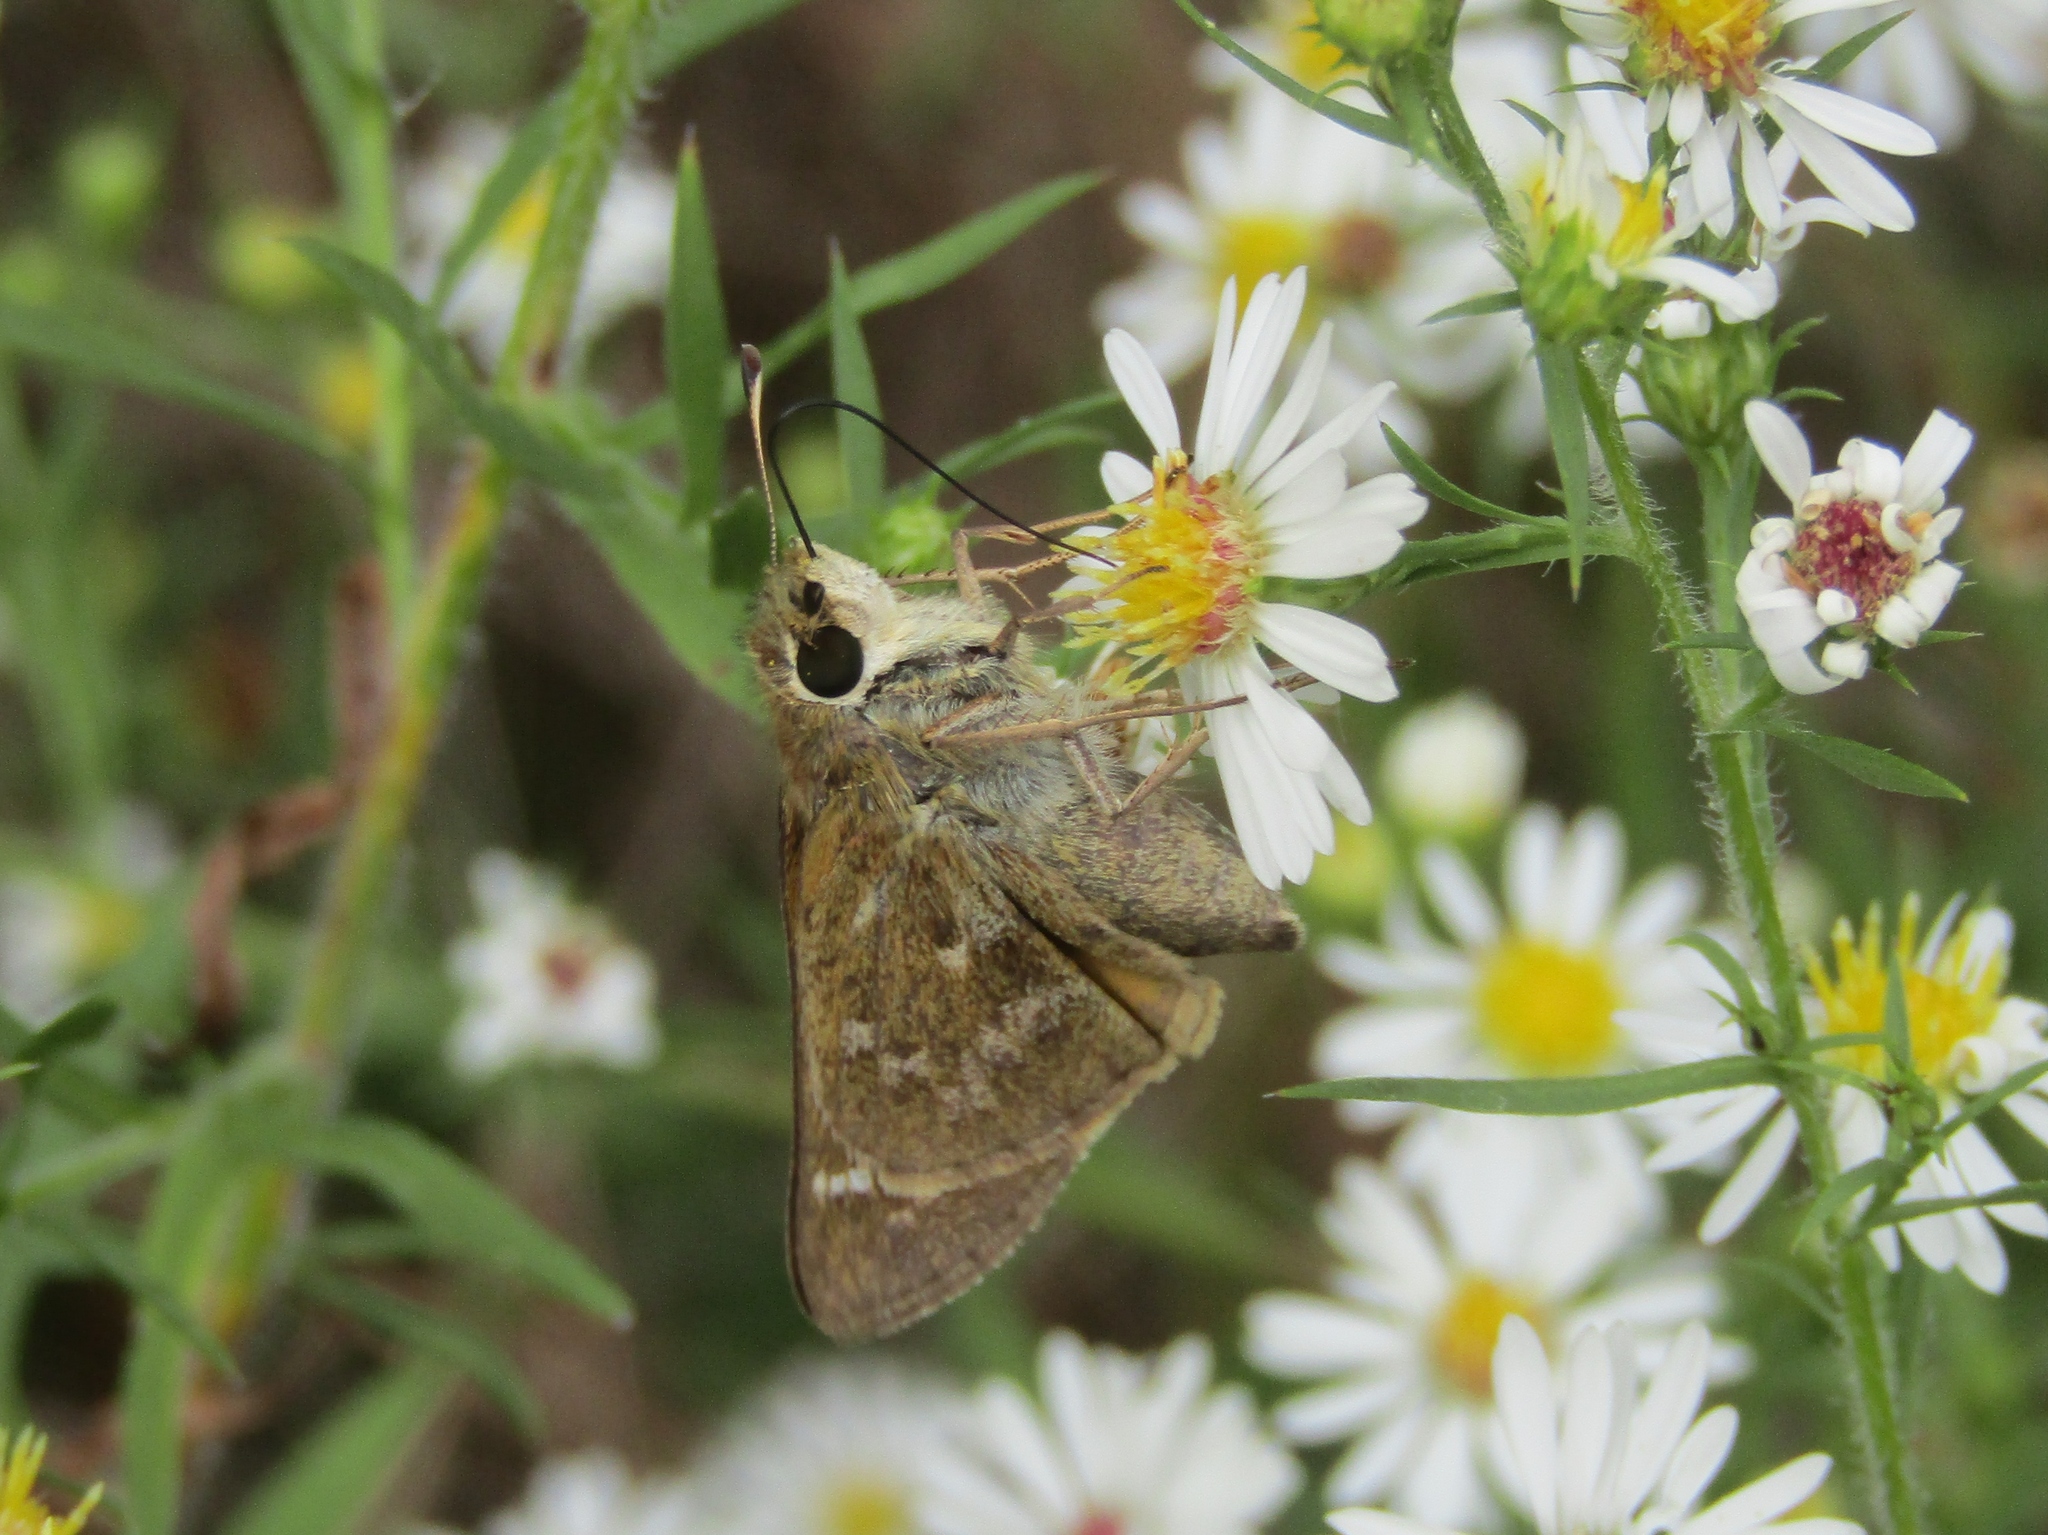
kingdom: Animalia
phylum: Arthropoda
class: Insecta
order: Lepidoptera
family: Hesperiidae
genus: Atalopedes
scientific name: Atalopedes
